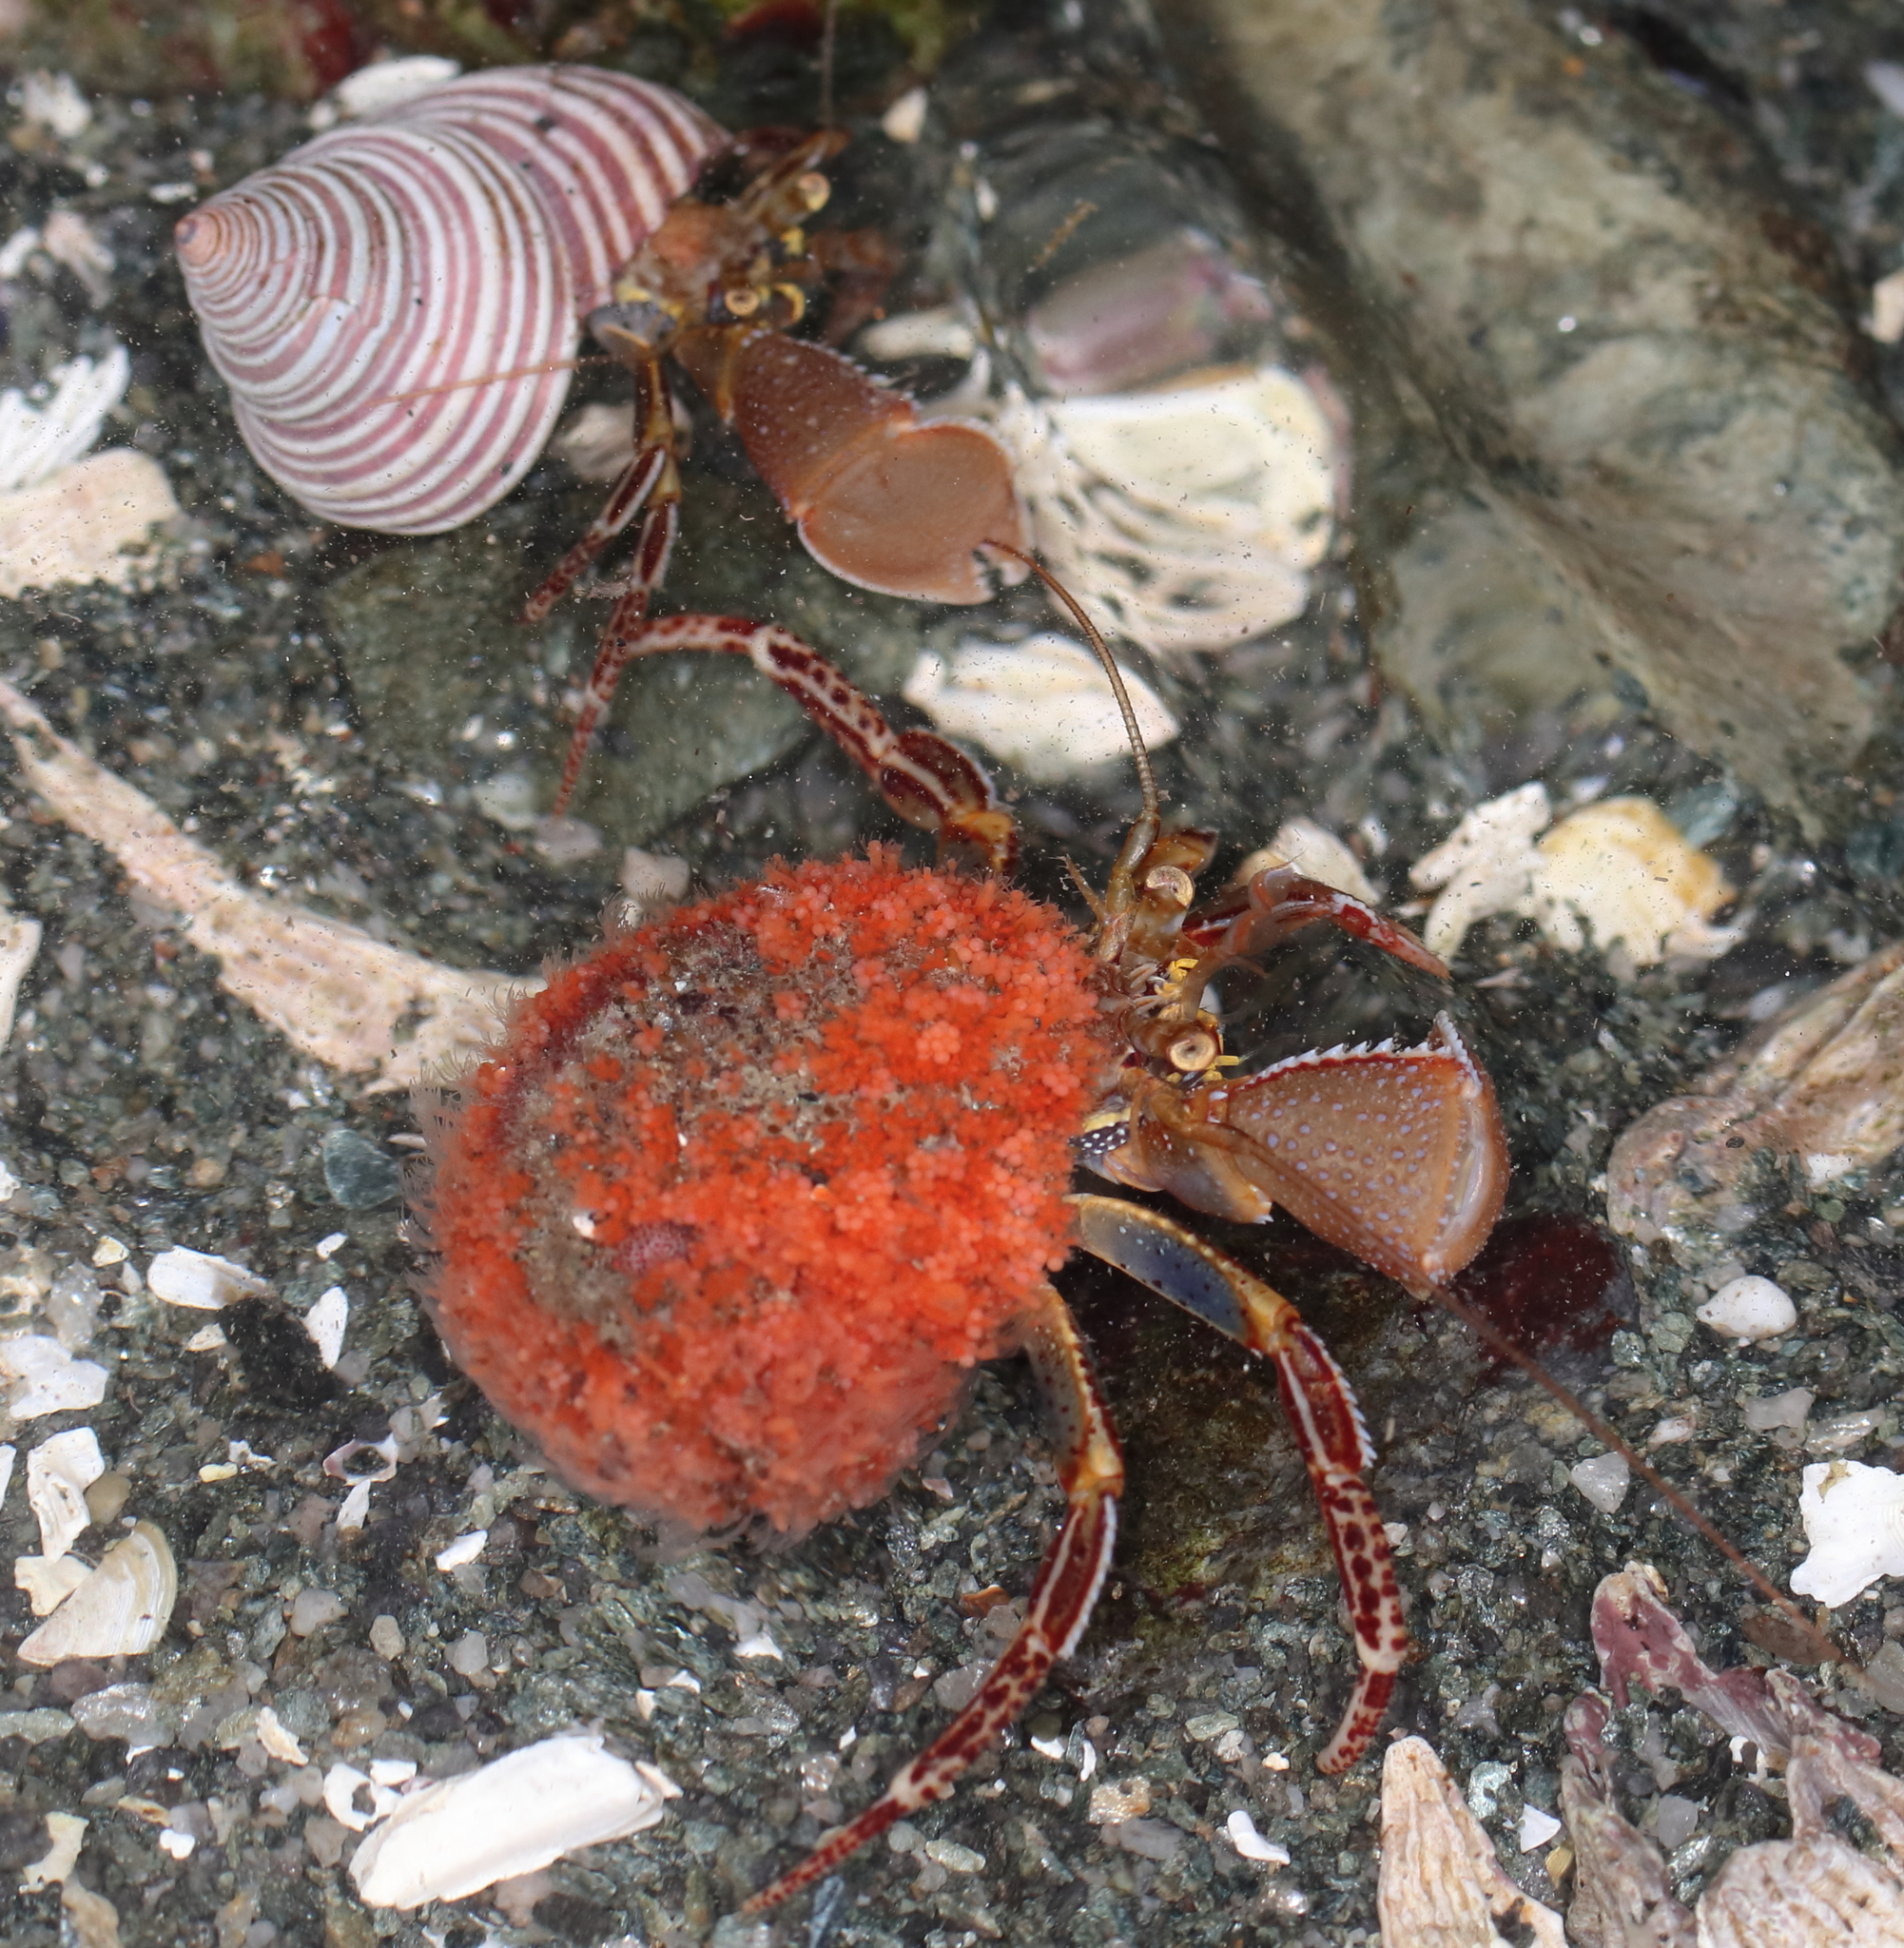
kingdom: Animalia
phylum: Arthropoda
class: Malacostraca
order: Decapoda
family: Paguridae
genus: Elassochirus
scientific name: Elassochirus tenuimanus
